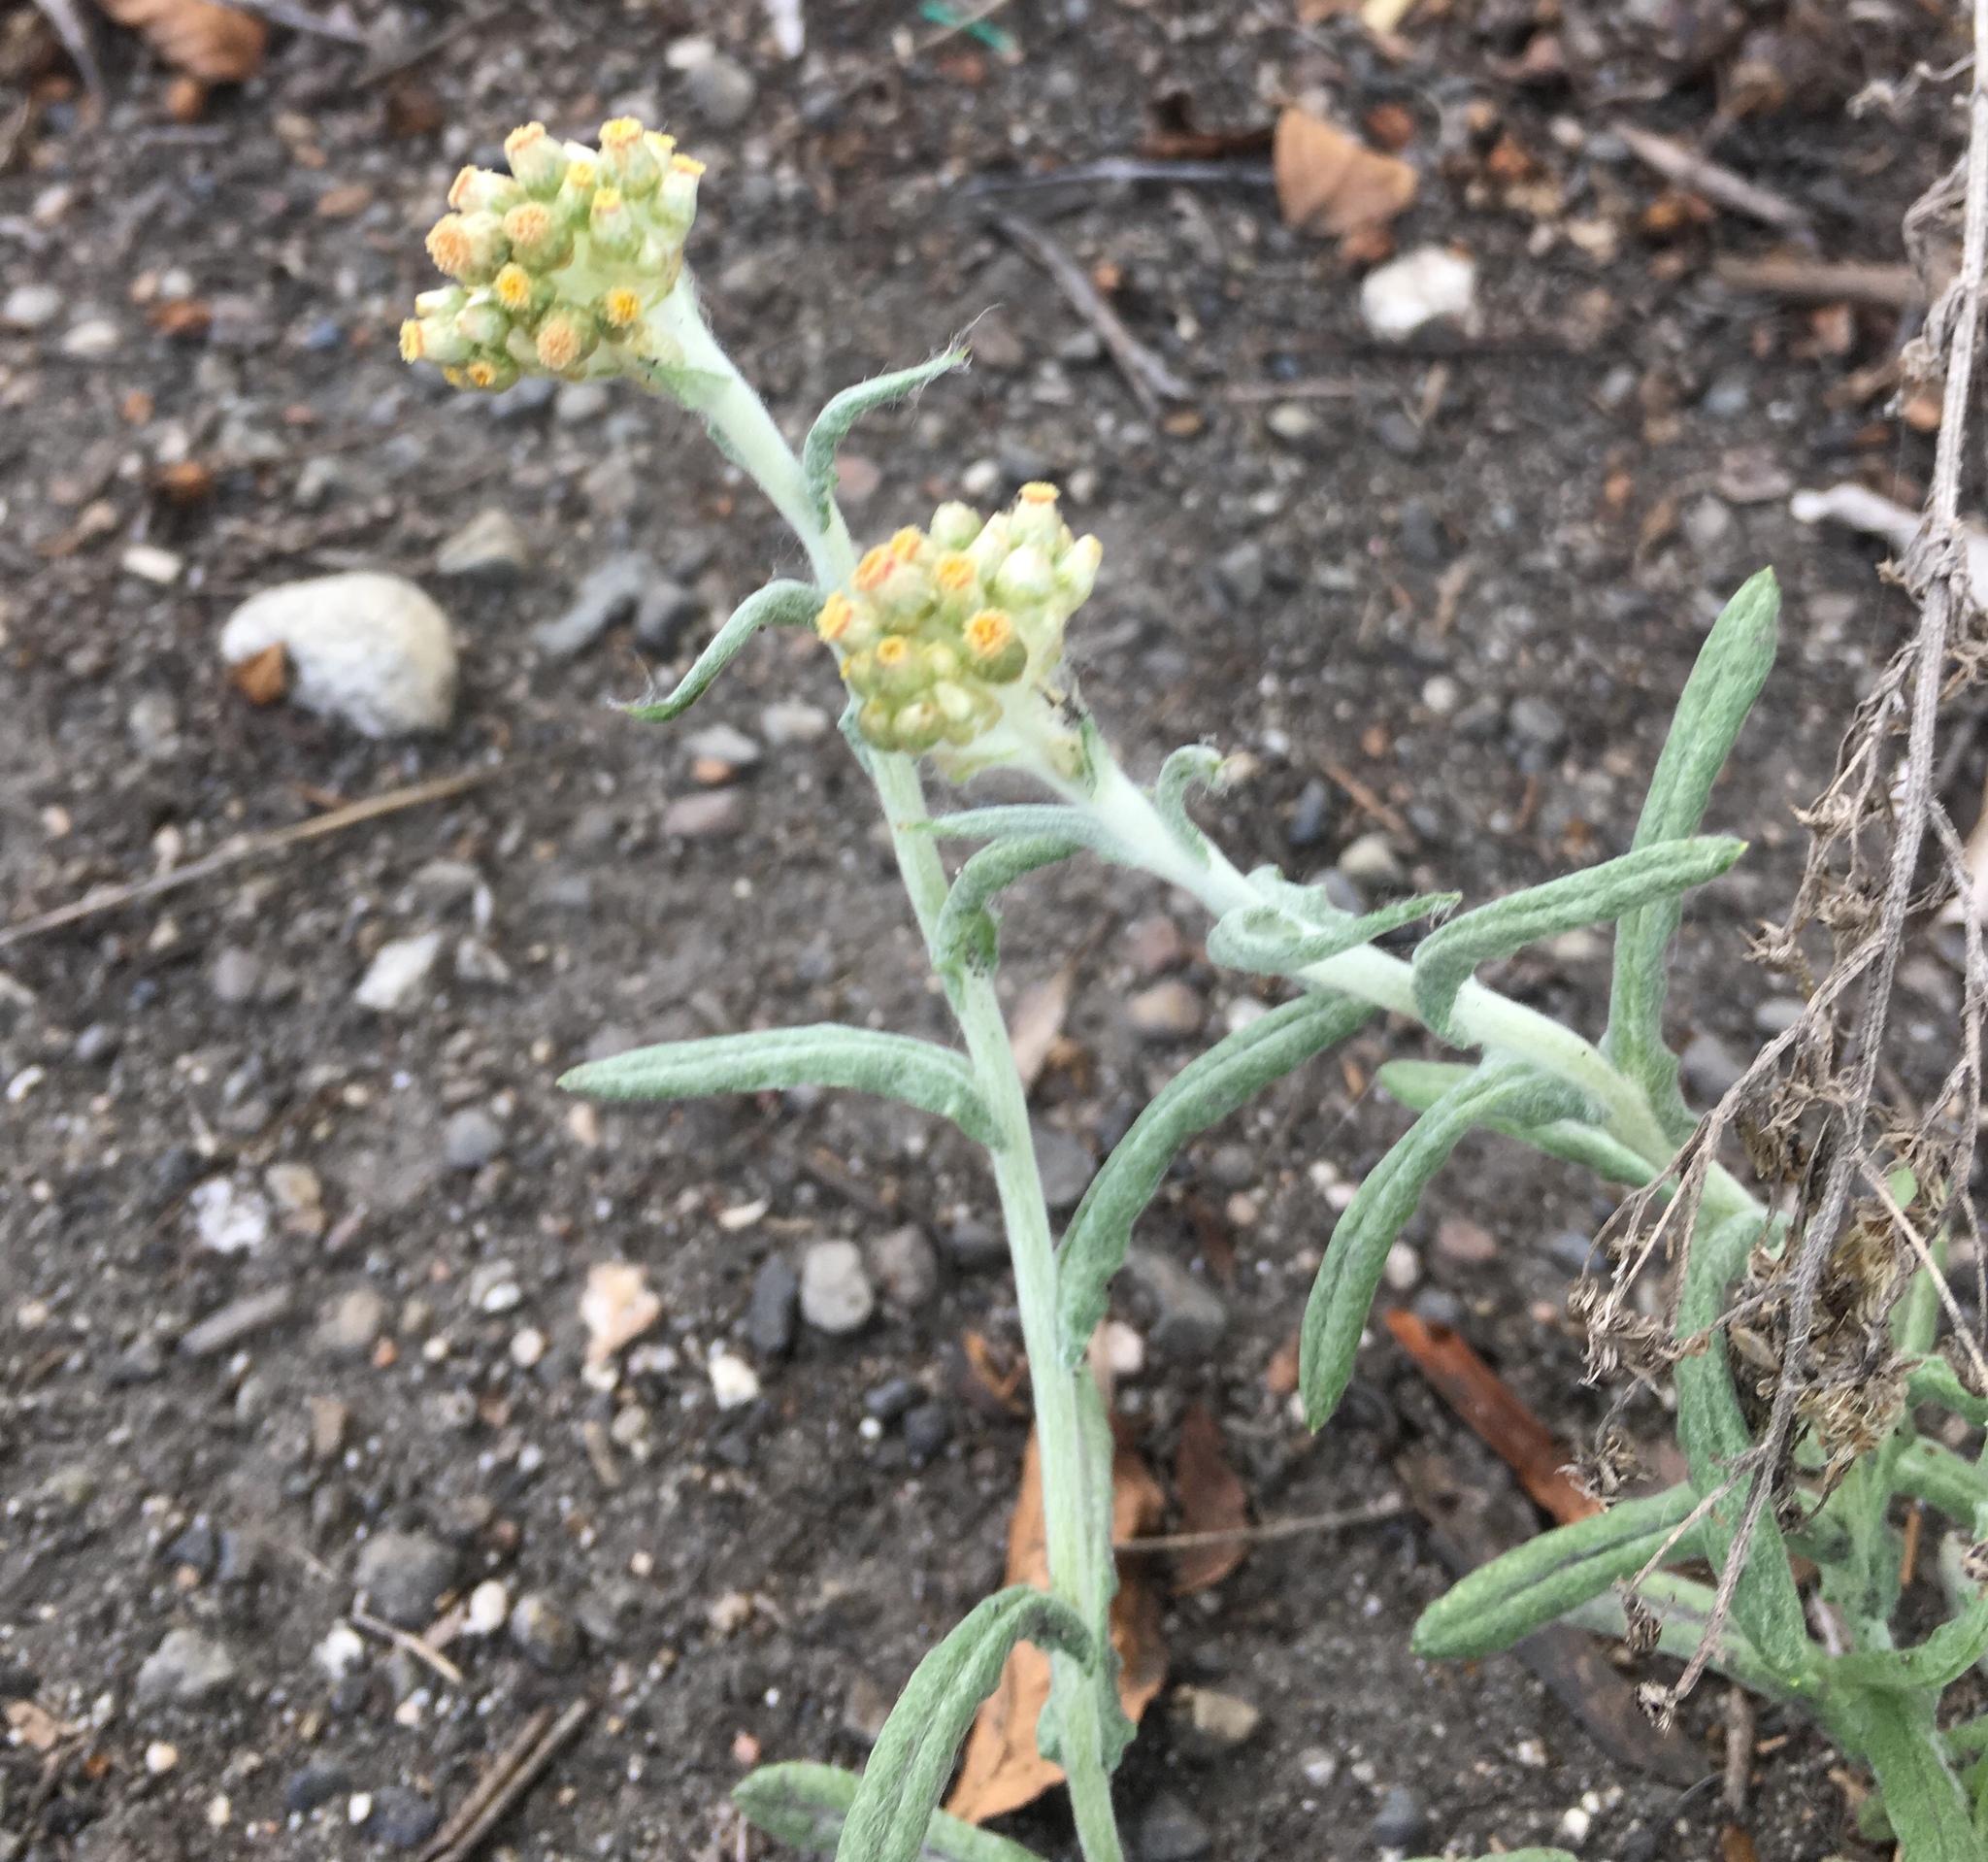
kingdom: Plantae
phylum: Tracheophyta
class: Magnoliopsida
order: Asterales
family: Asteraceae
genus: Helichrysum
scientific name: Helichrysum luteoalbum
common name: Daisy
